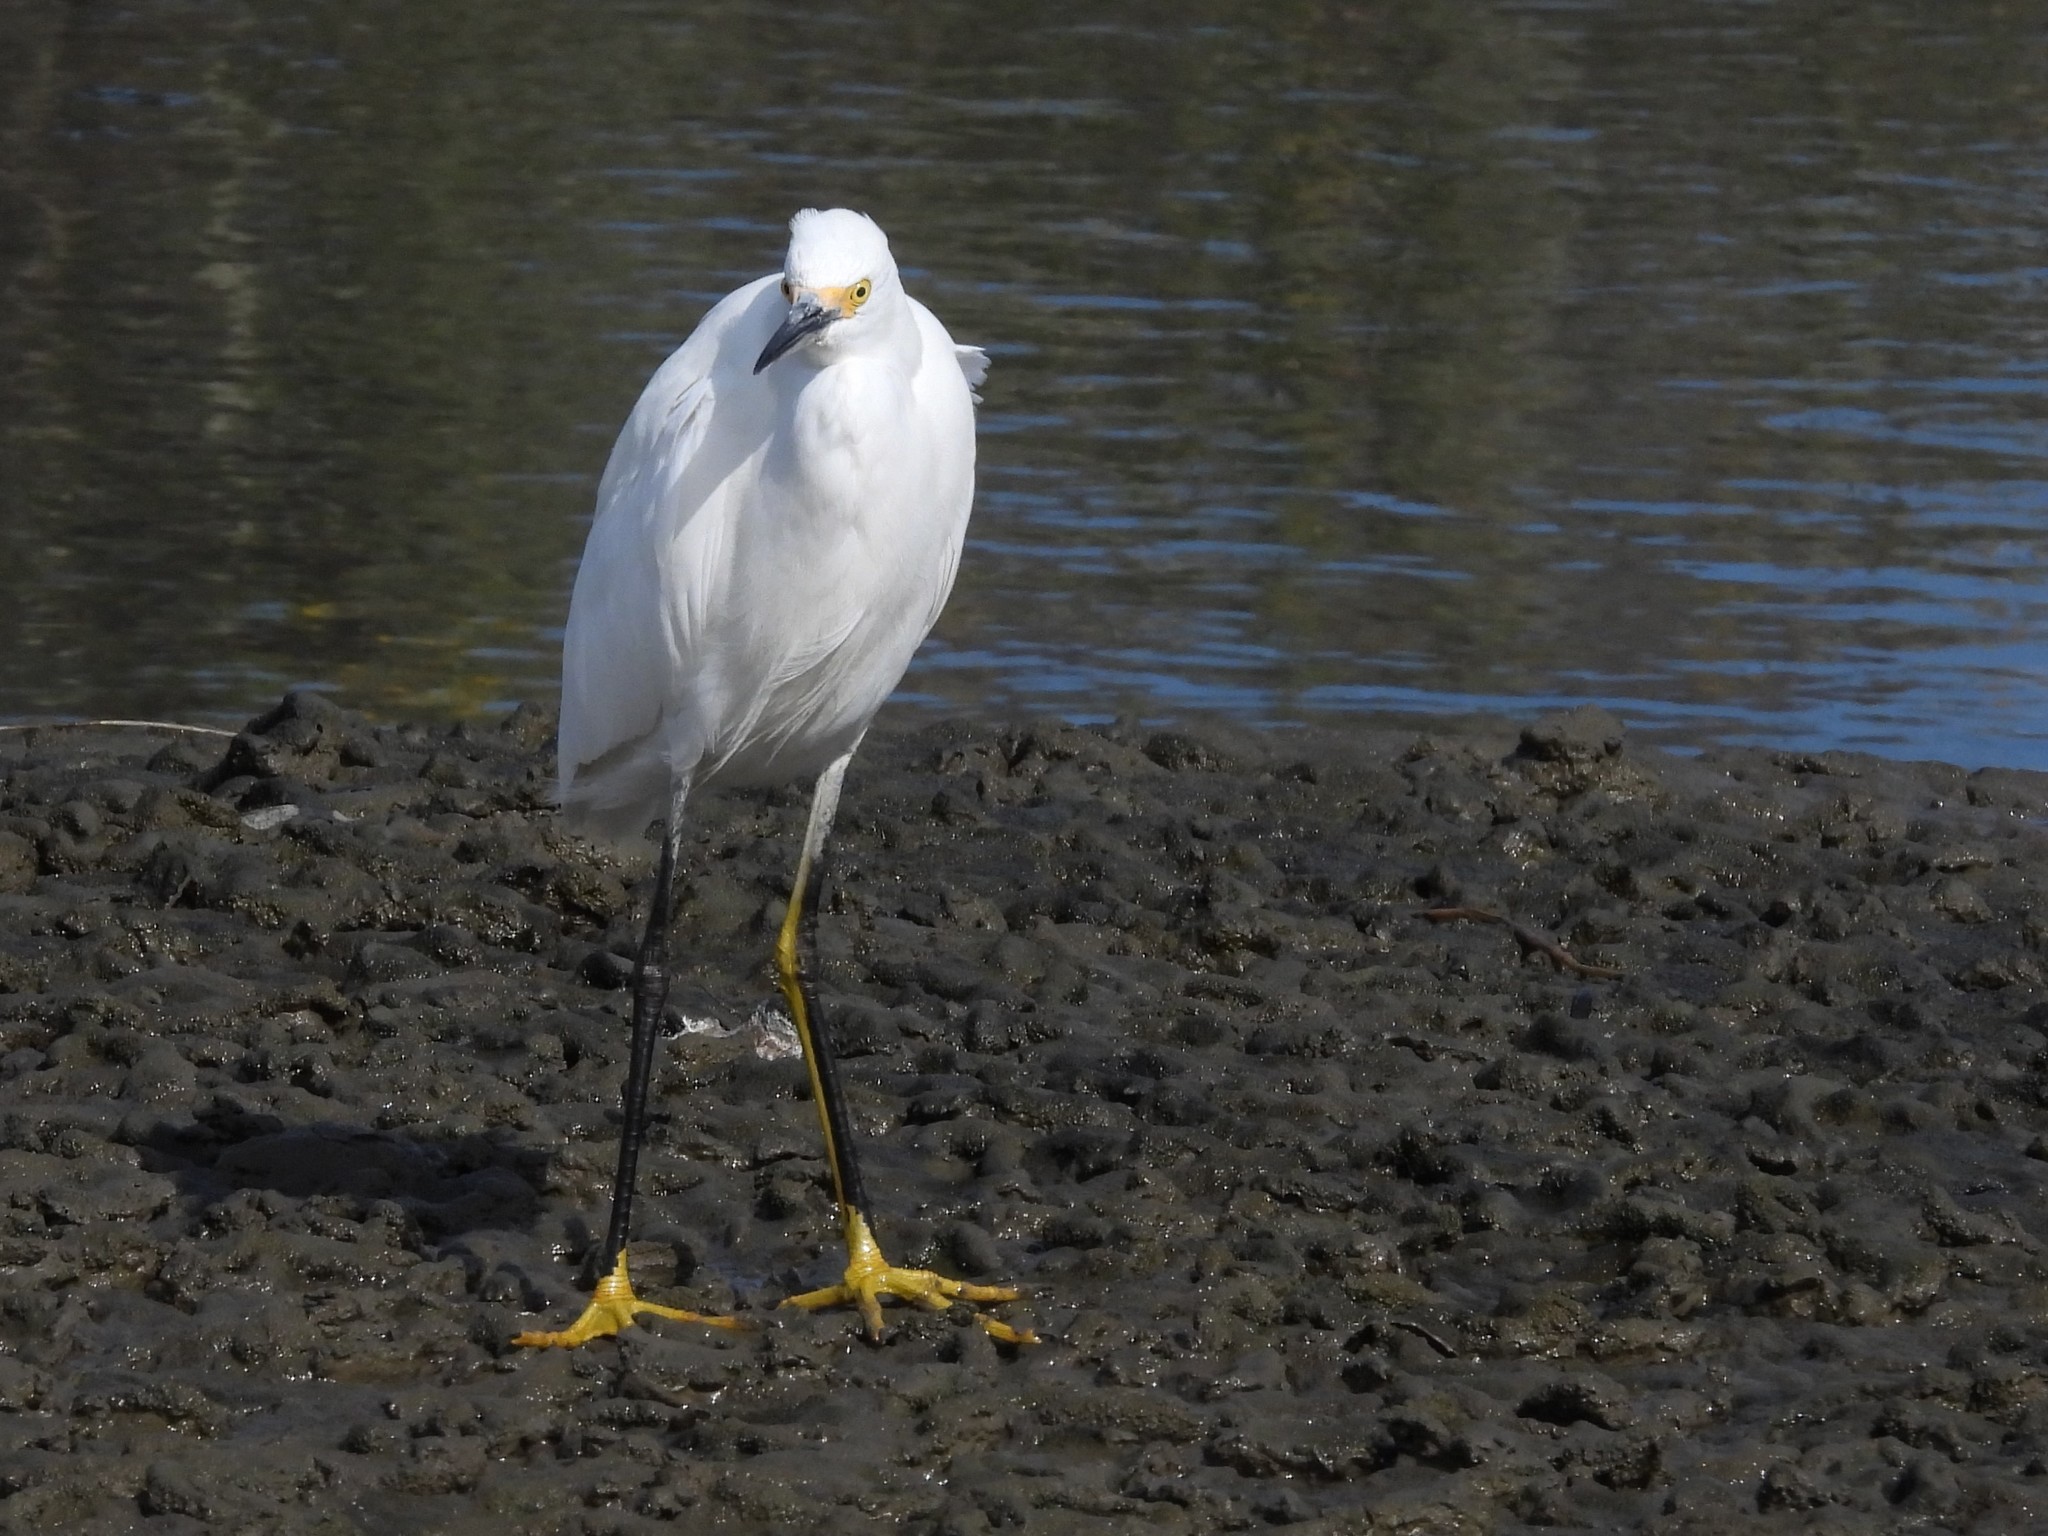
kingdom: Animalia
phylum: Chordata
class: Aves
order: Pelecaniformes
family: Ardeidae
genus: Egretta
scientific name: Egretta thula
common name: Snowy egret
